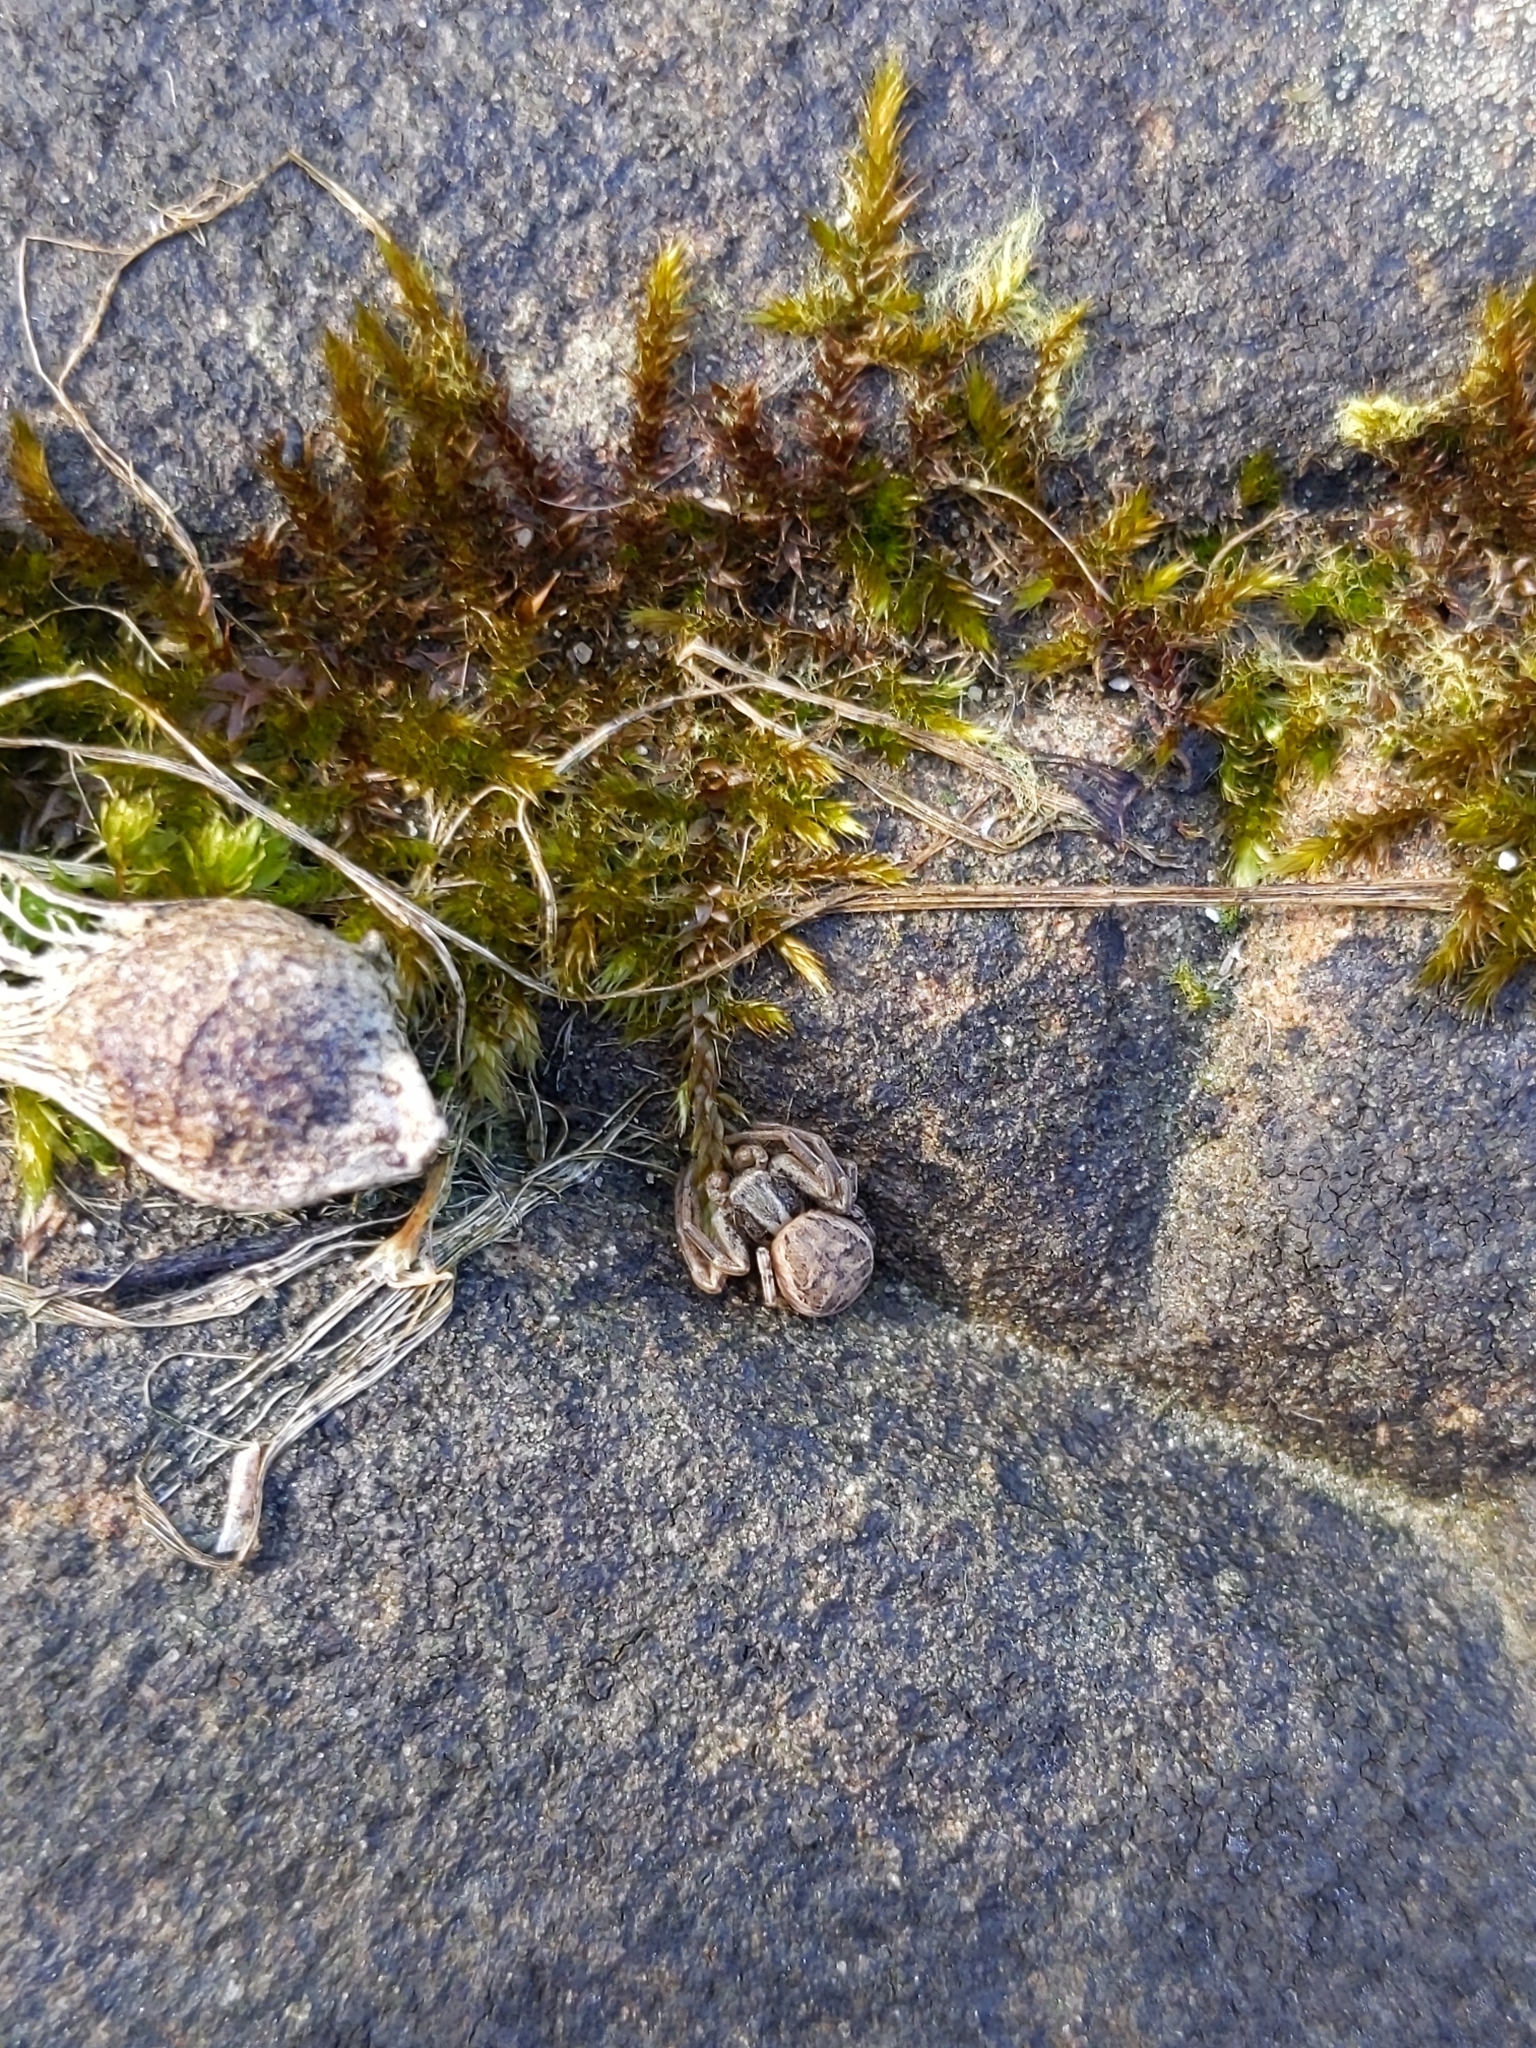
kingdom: Animalia
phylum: Arthropoda
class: Arachnida
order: Araneae
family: Thomisidae
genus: Xysticus
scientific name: Xysticus
